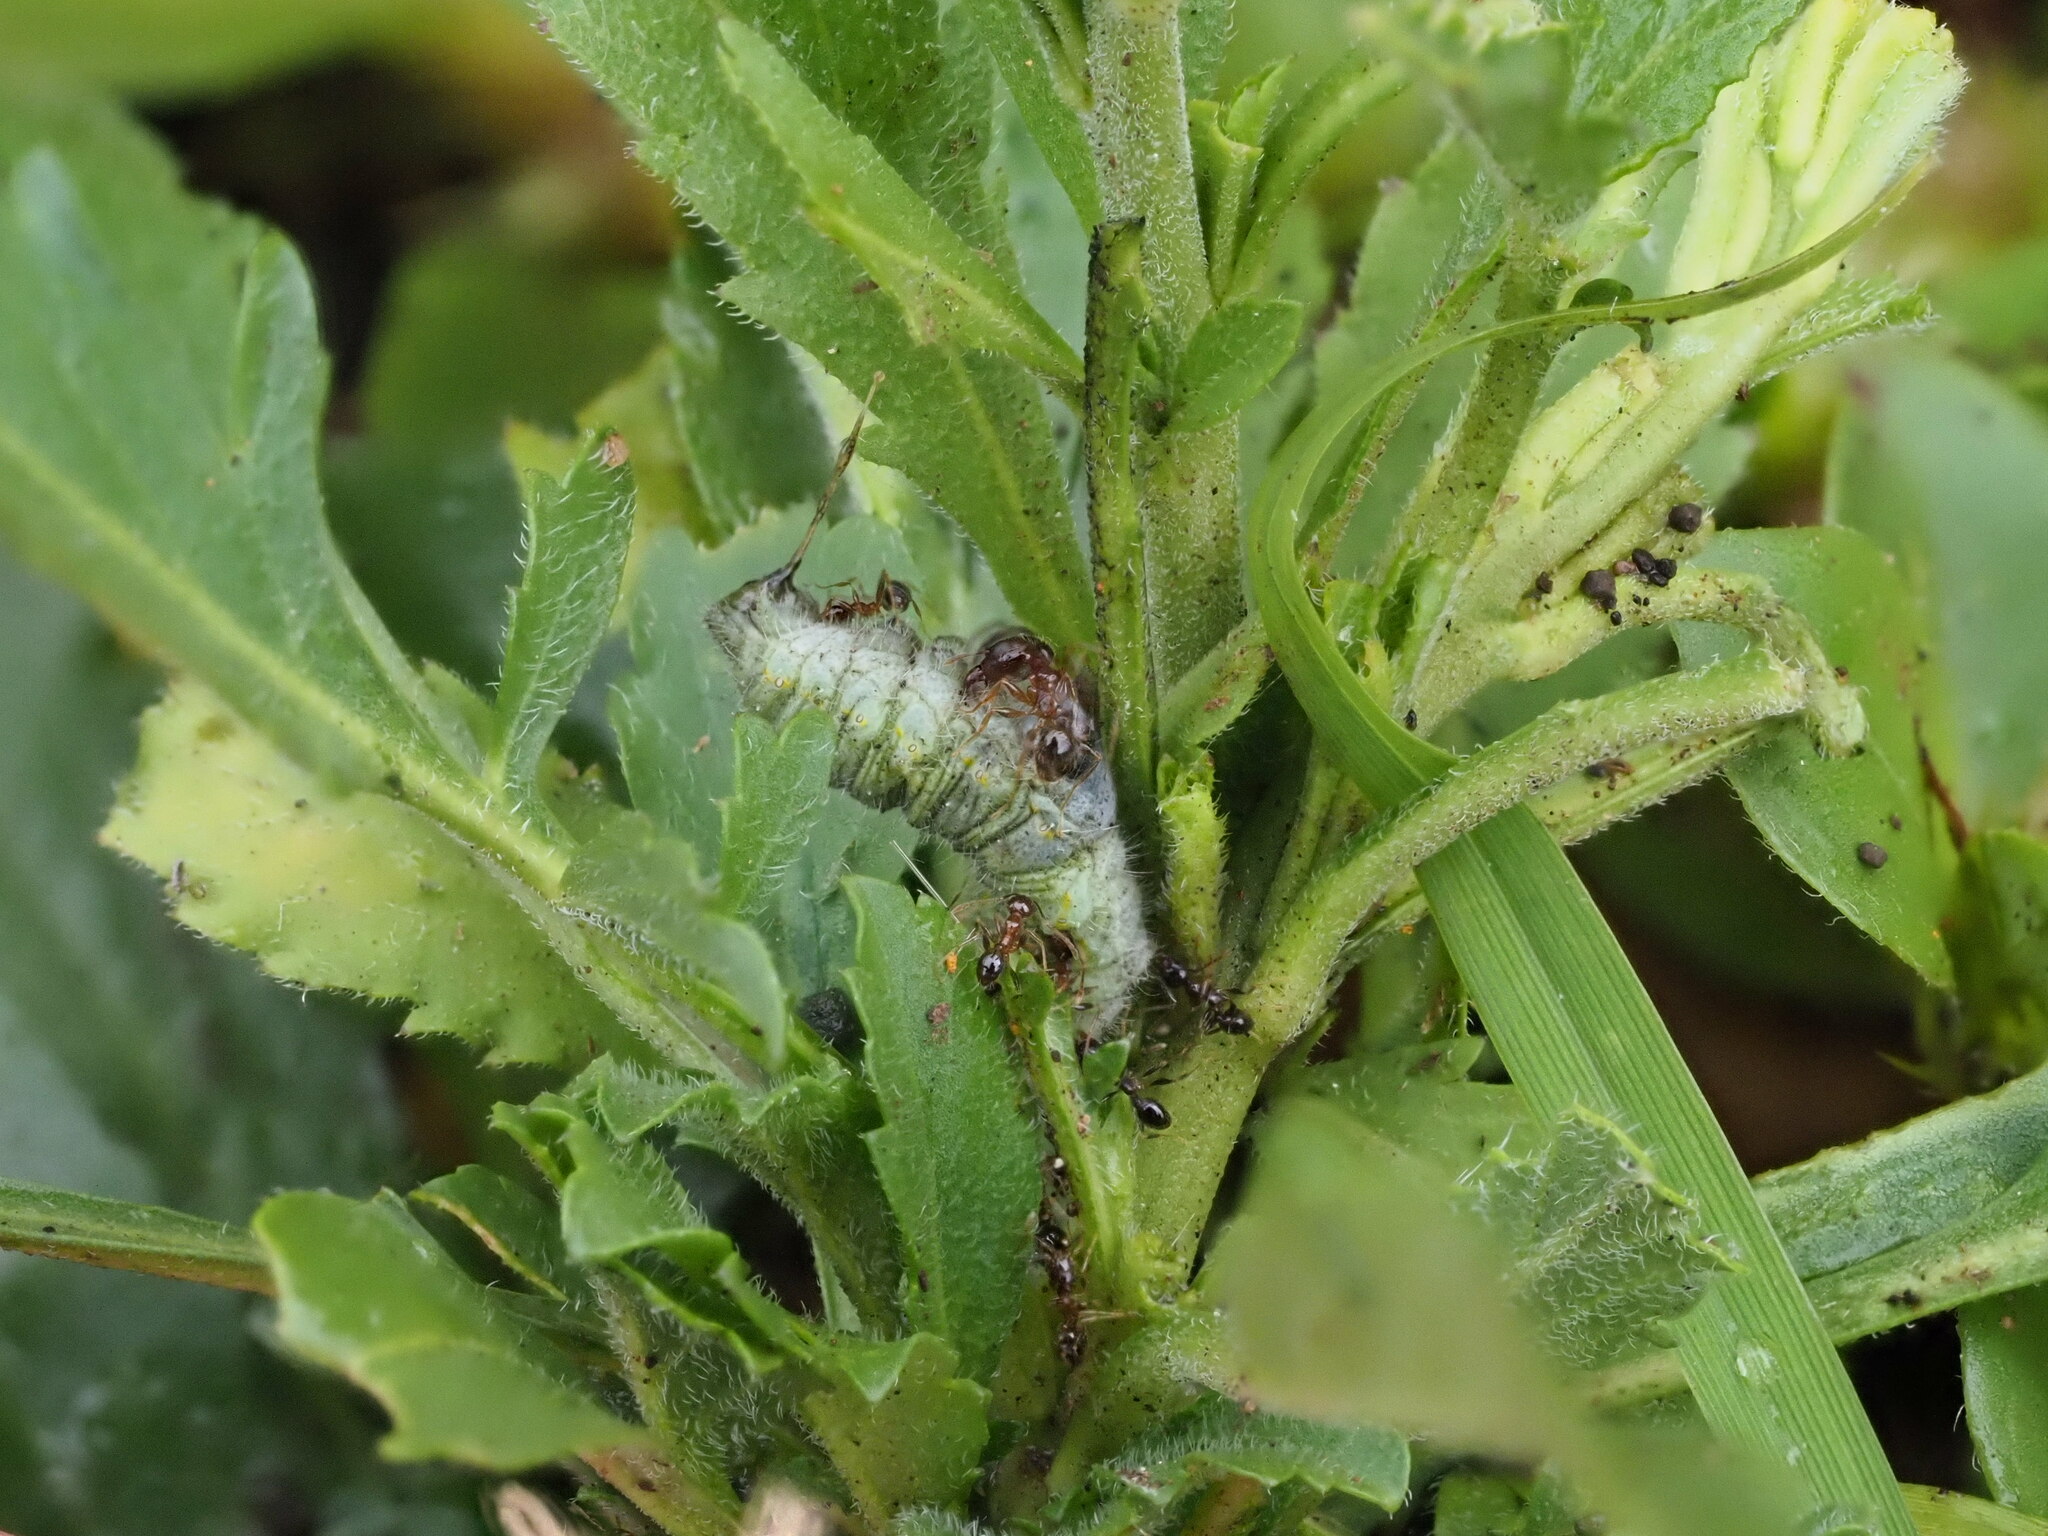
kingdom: Animalia
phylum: Arthropoda
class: Insecta
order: Hymenoptera
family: Formicidae
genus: Pheidole
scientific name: Pheidole megacephala
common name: Bigheaded ant
